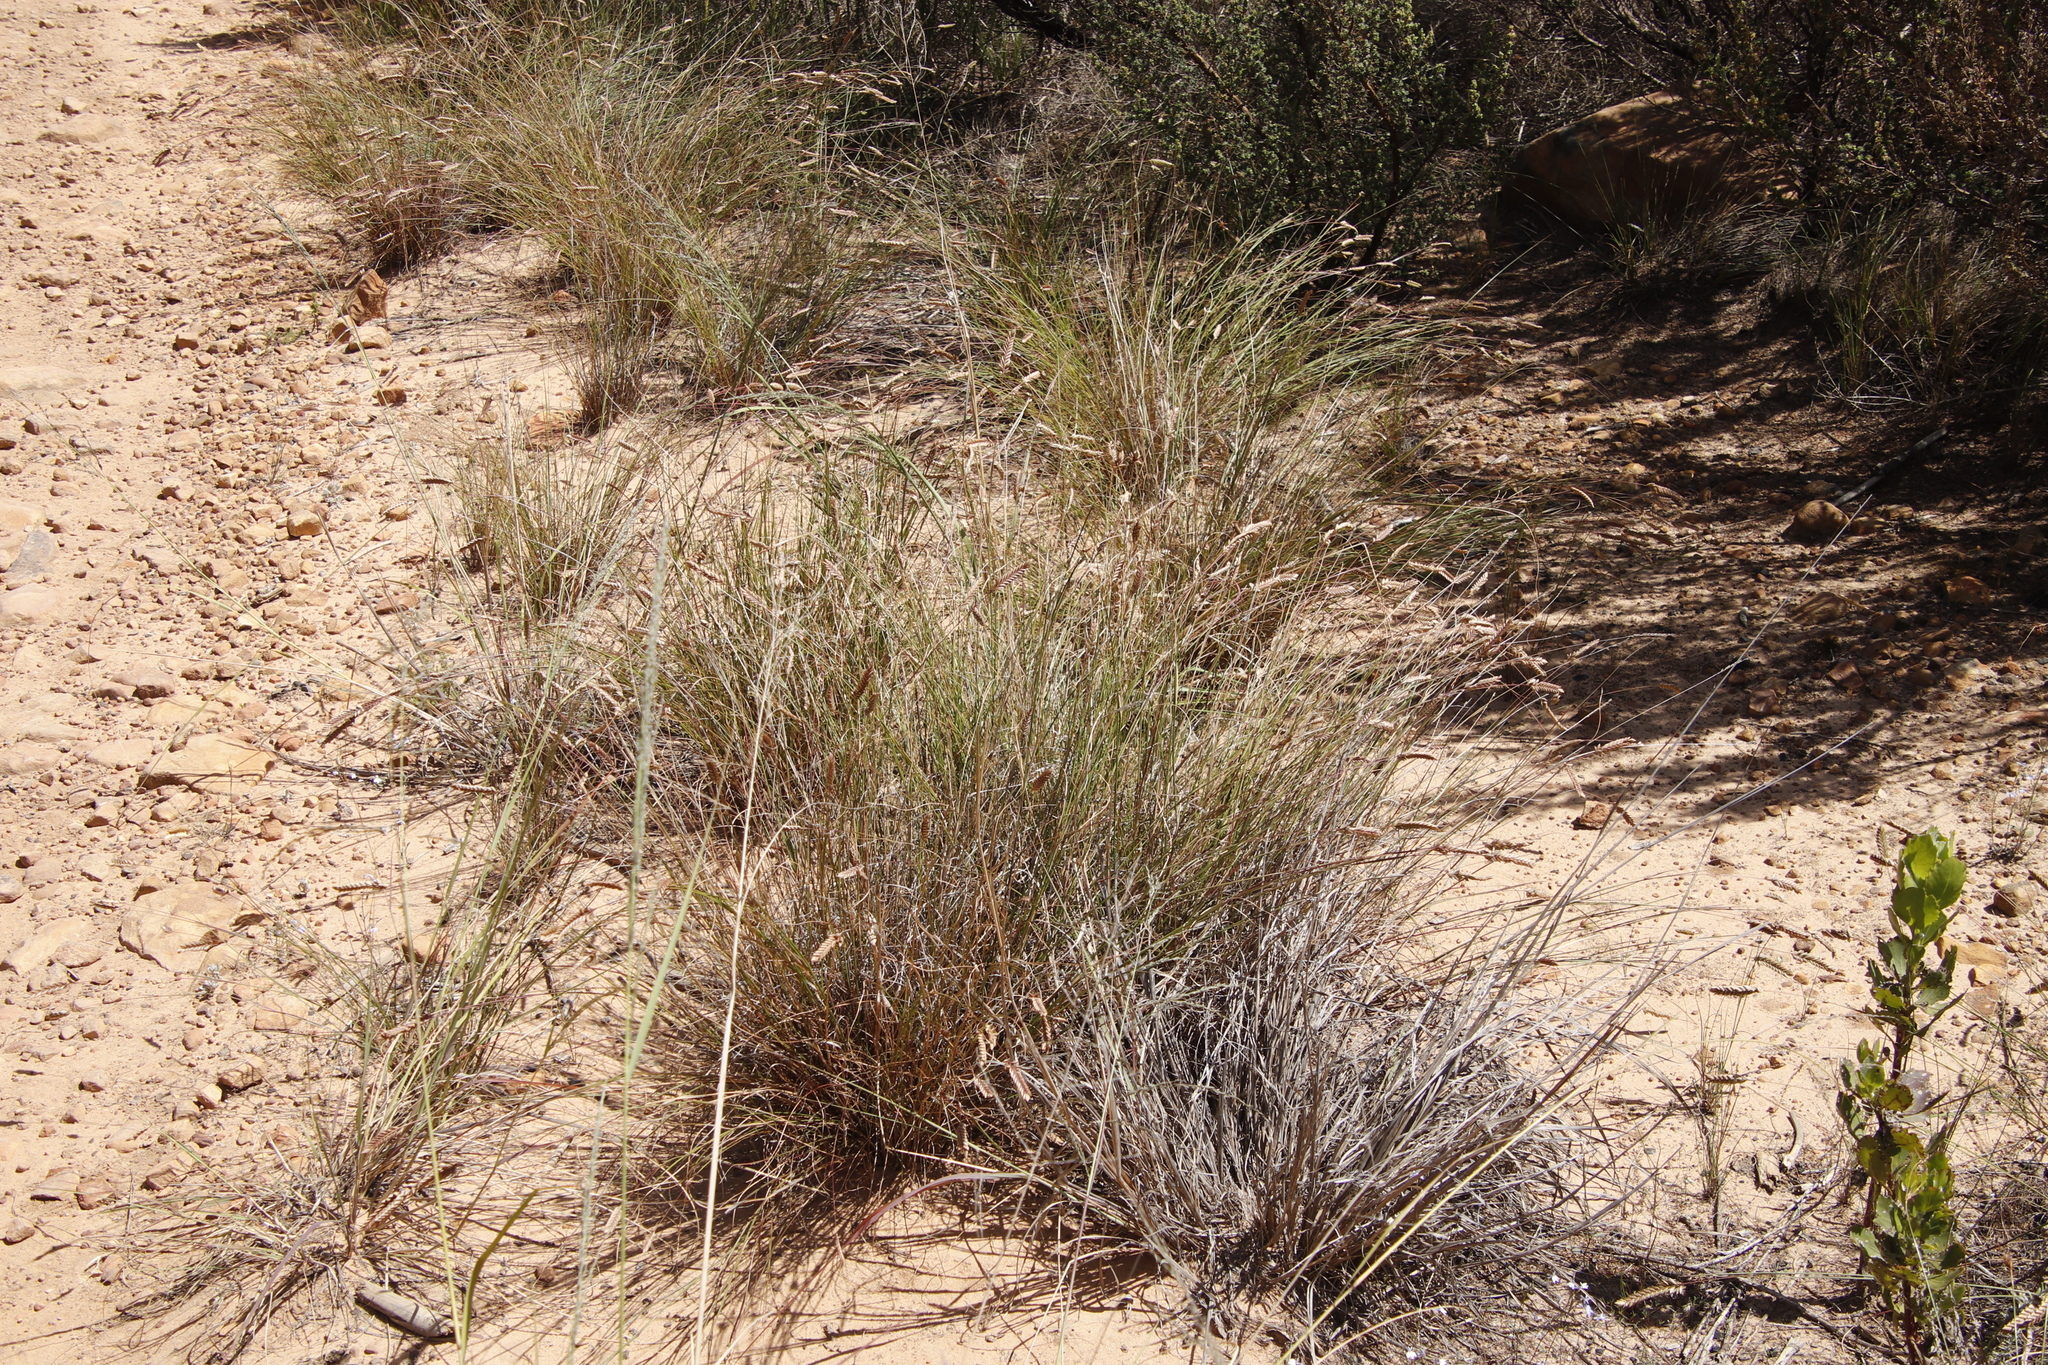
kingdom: Plantae
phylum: Tracheophyta
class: Liliopsida
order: Poales
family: Poaceae
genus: Tribolium
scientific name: Tribolium uniolae
